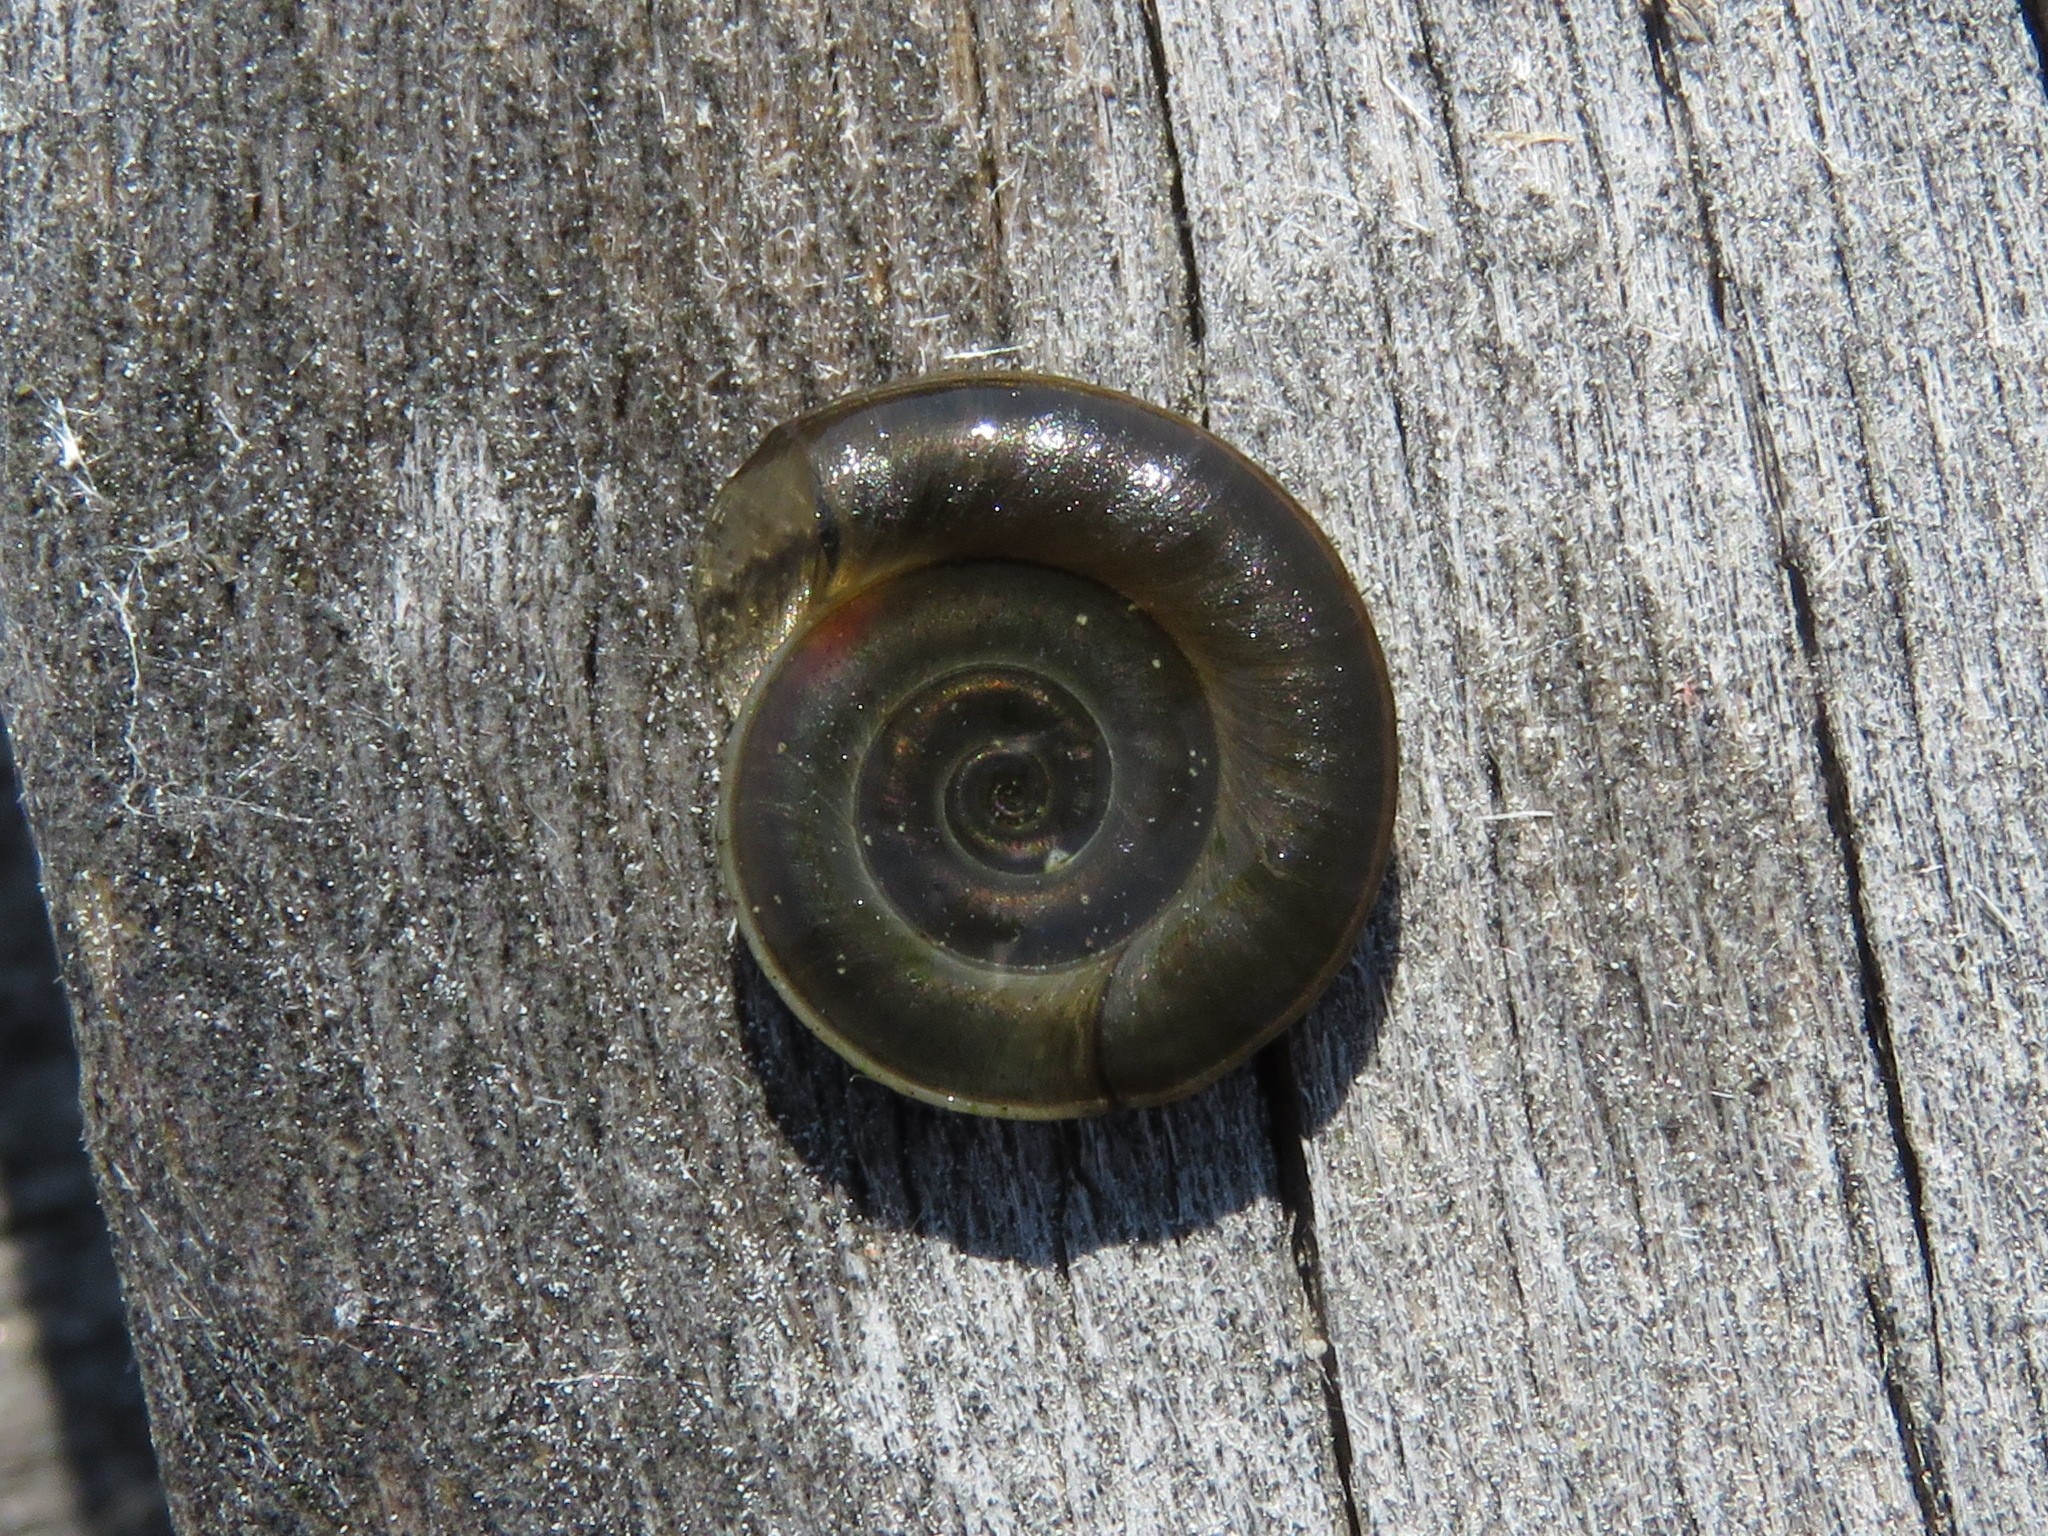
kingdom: Animalia
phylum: Mollusca
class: Gastropoda
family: Planorbidae
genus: Planorbis
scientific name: Planorbis planorbis
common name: Margined ramshorn
